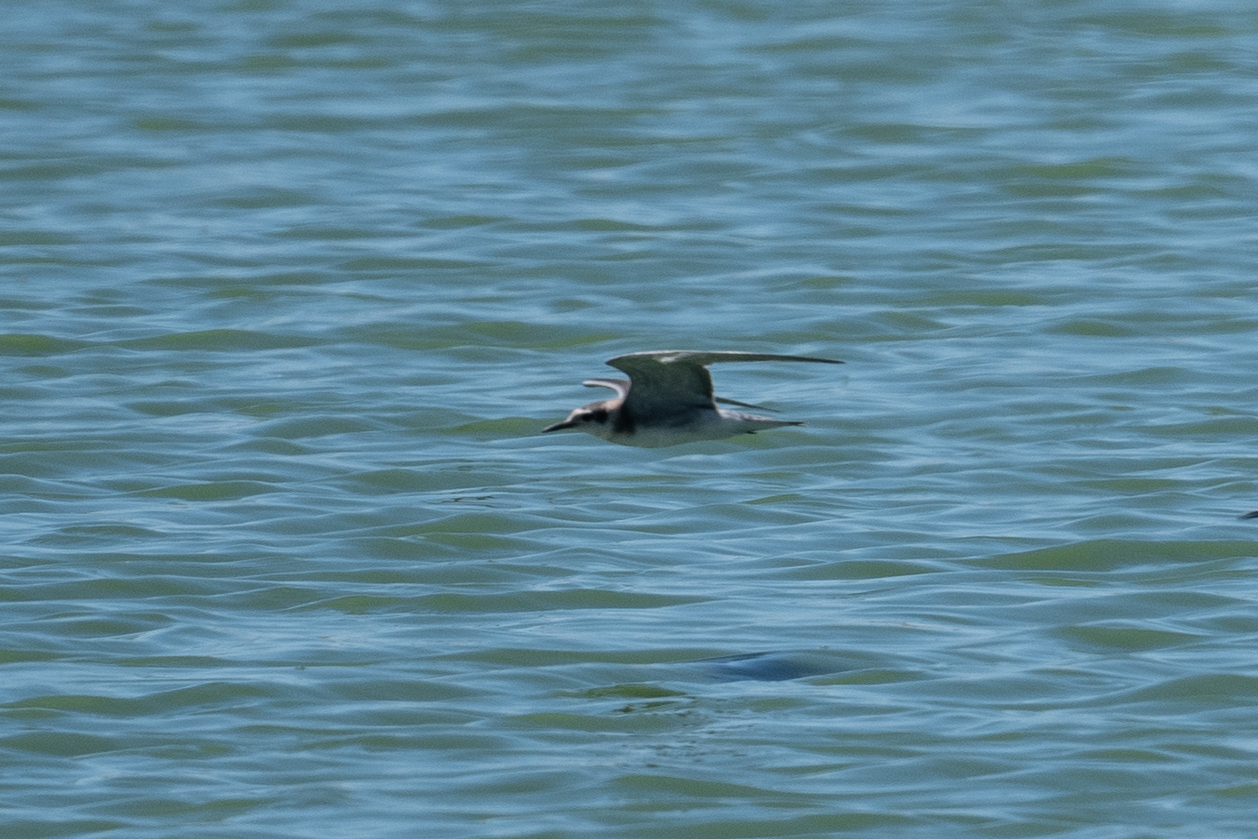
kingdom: Animalia
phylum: Chordata
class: Aves
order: Charadriiformes
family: Laridae
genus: Chlidonias
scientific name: Chlidonias niger
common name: Black tern
